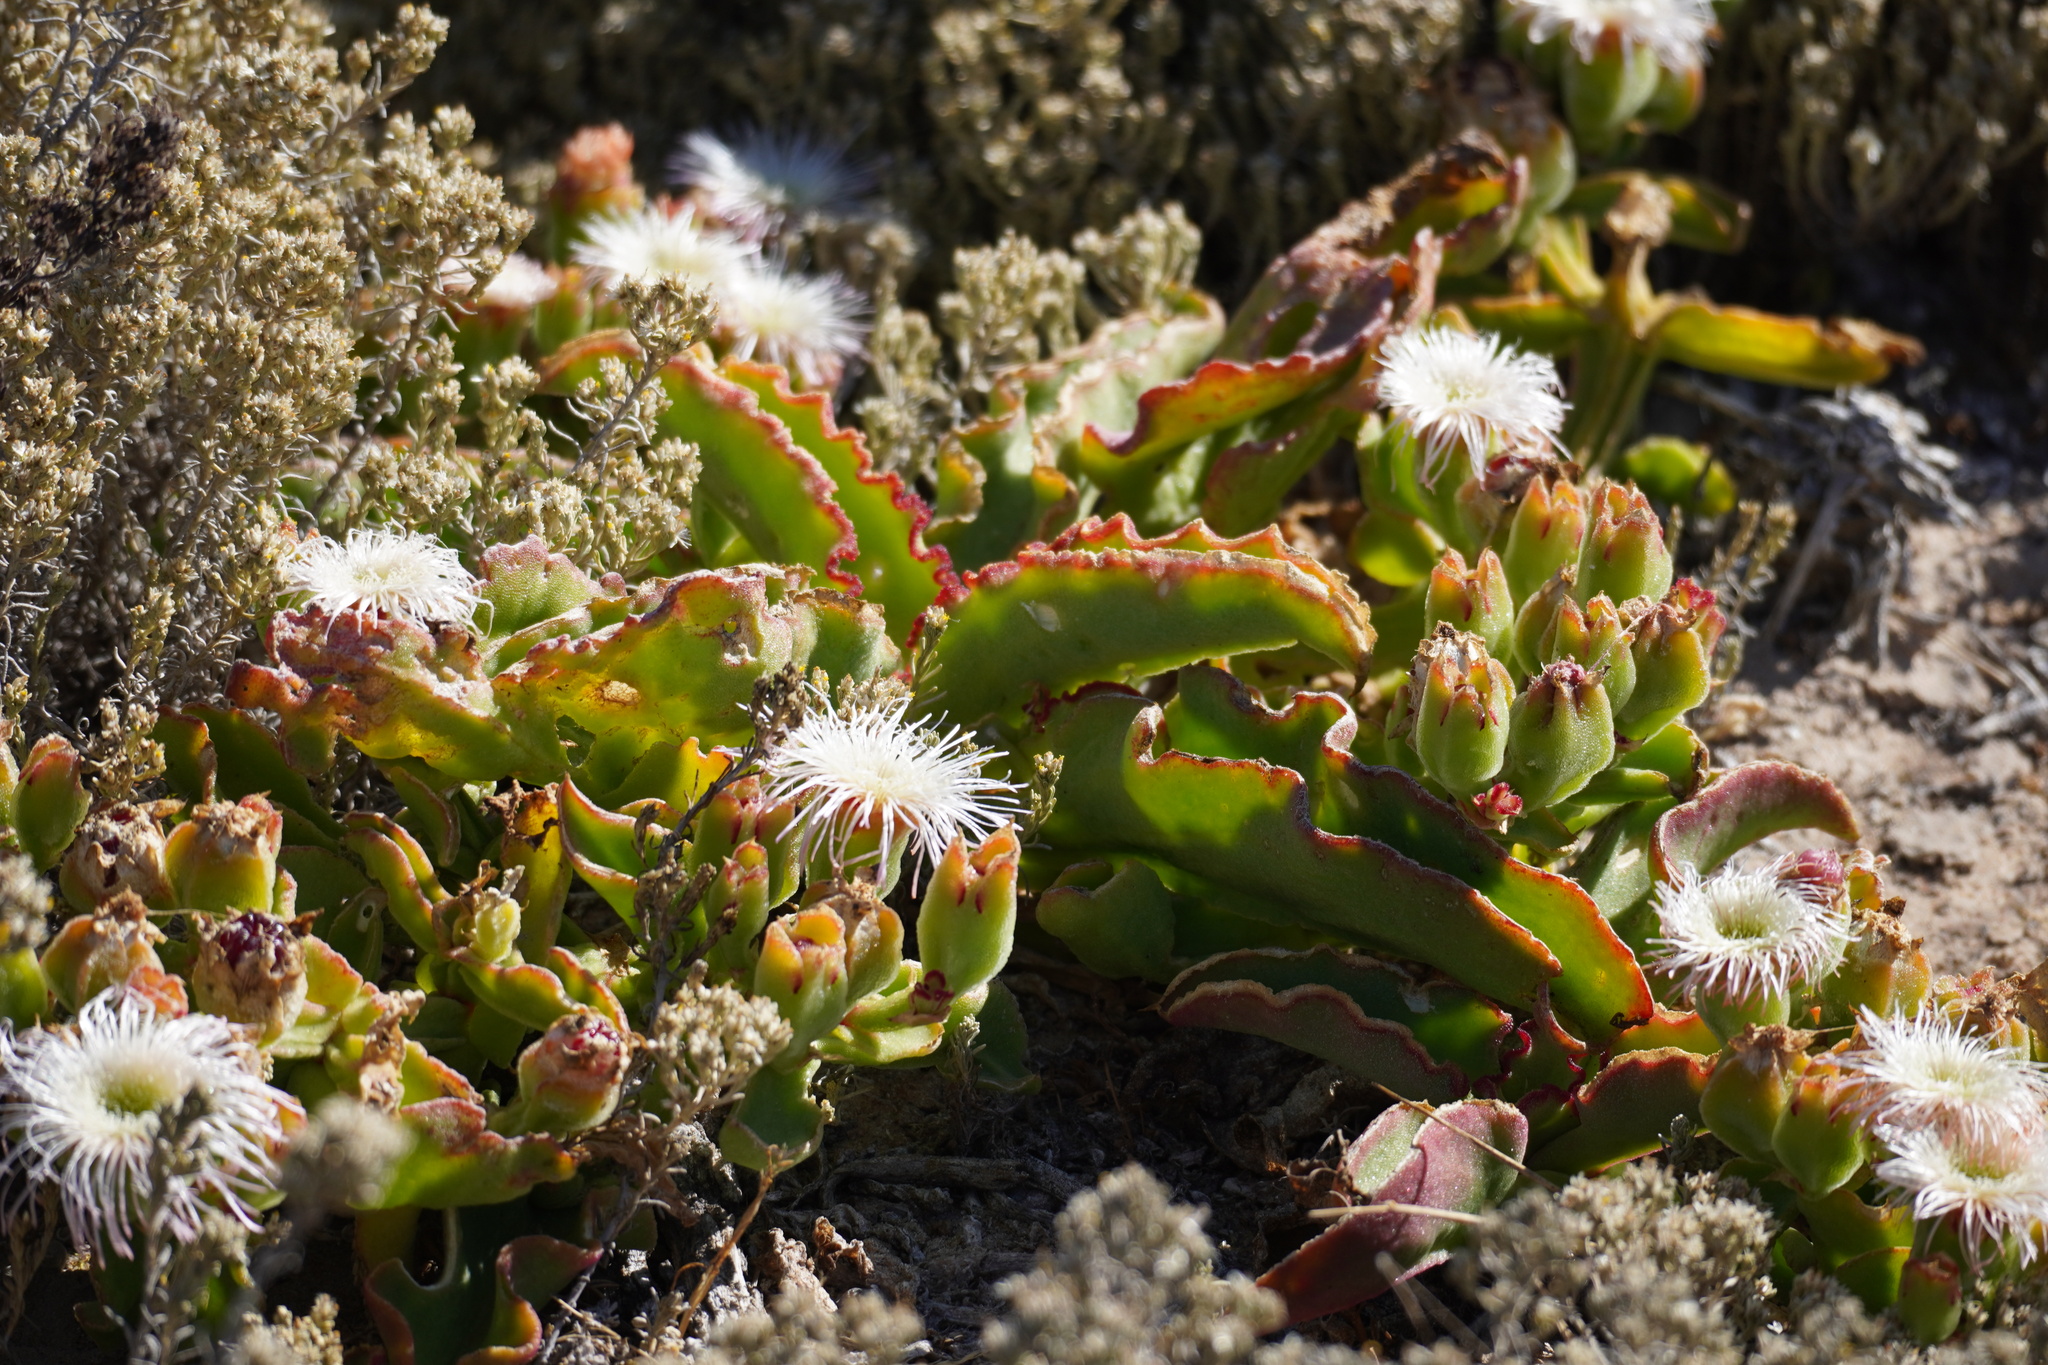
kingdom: Plantae
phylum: Tracheophyta
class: Magnoliopsida
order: Caryophyllales
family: Aizoaceae
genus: Mesembryanthemum
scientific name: Mesembryanthemum guerichianum
